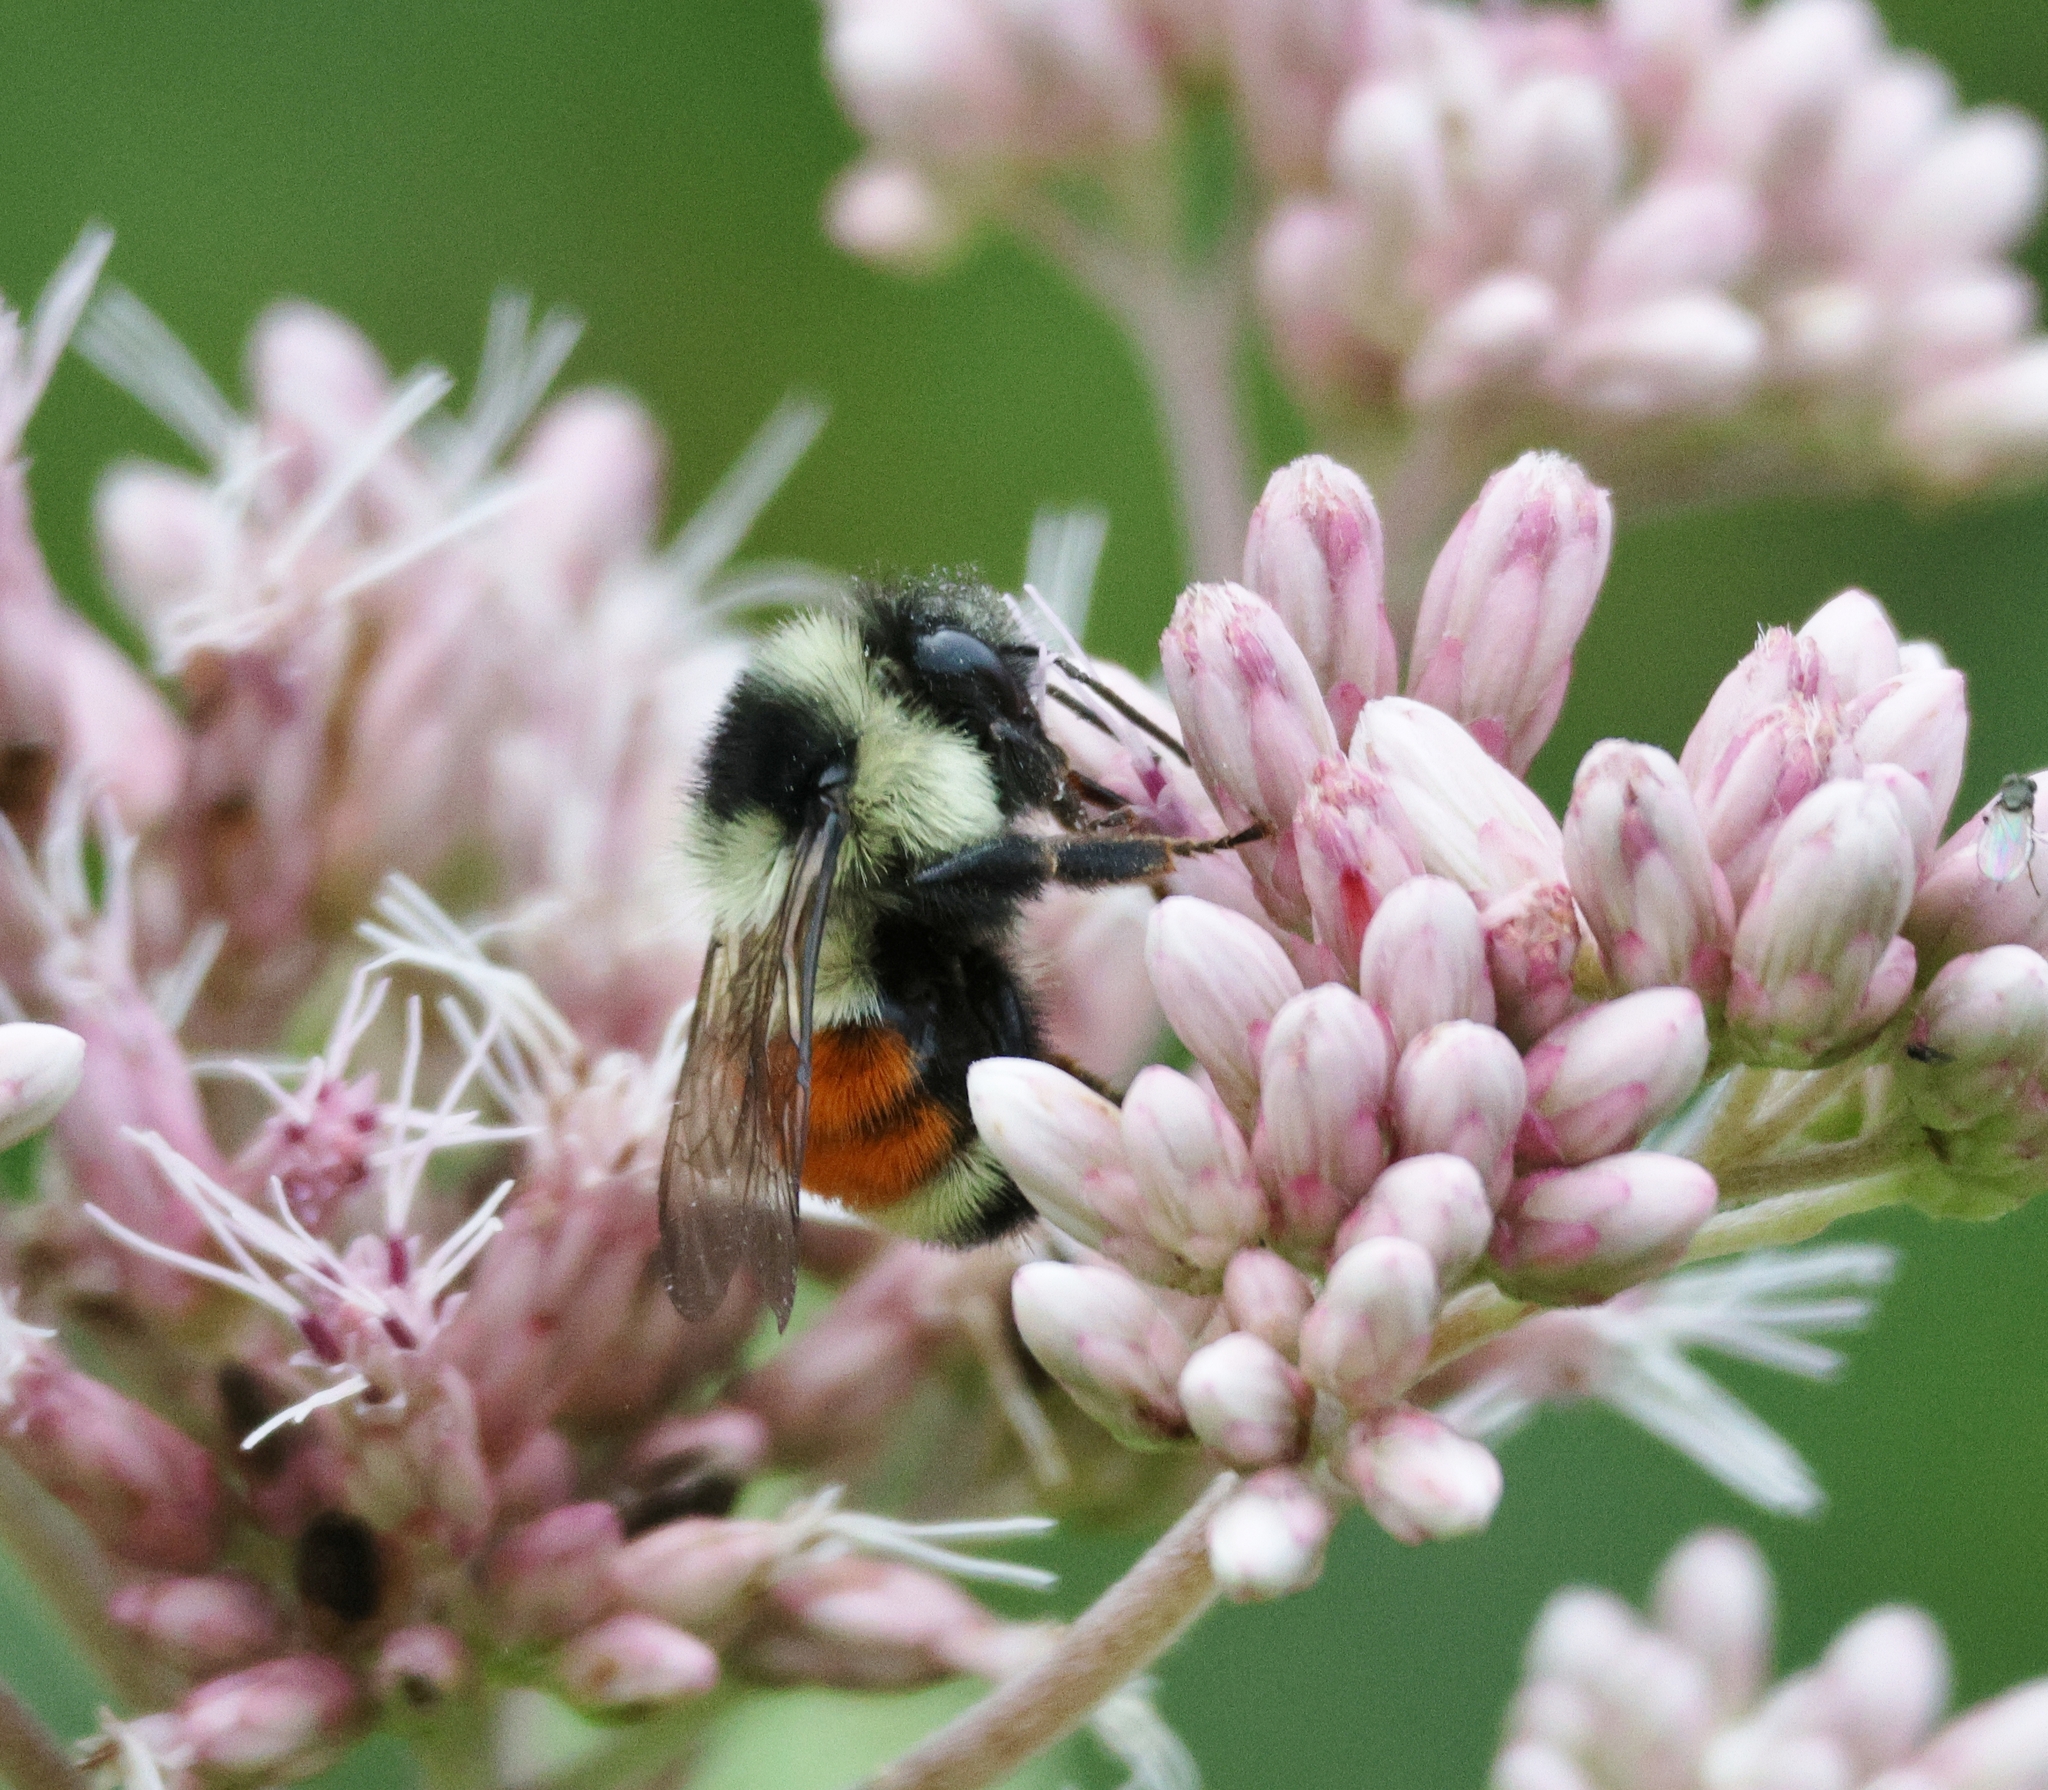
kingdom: Animalia
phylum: Arthropoda
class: Insecta
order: Hymenoptera
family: Apidae
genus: Bombus
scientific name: Bombus ternarius
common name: Tri-colored bumble bee
